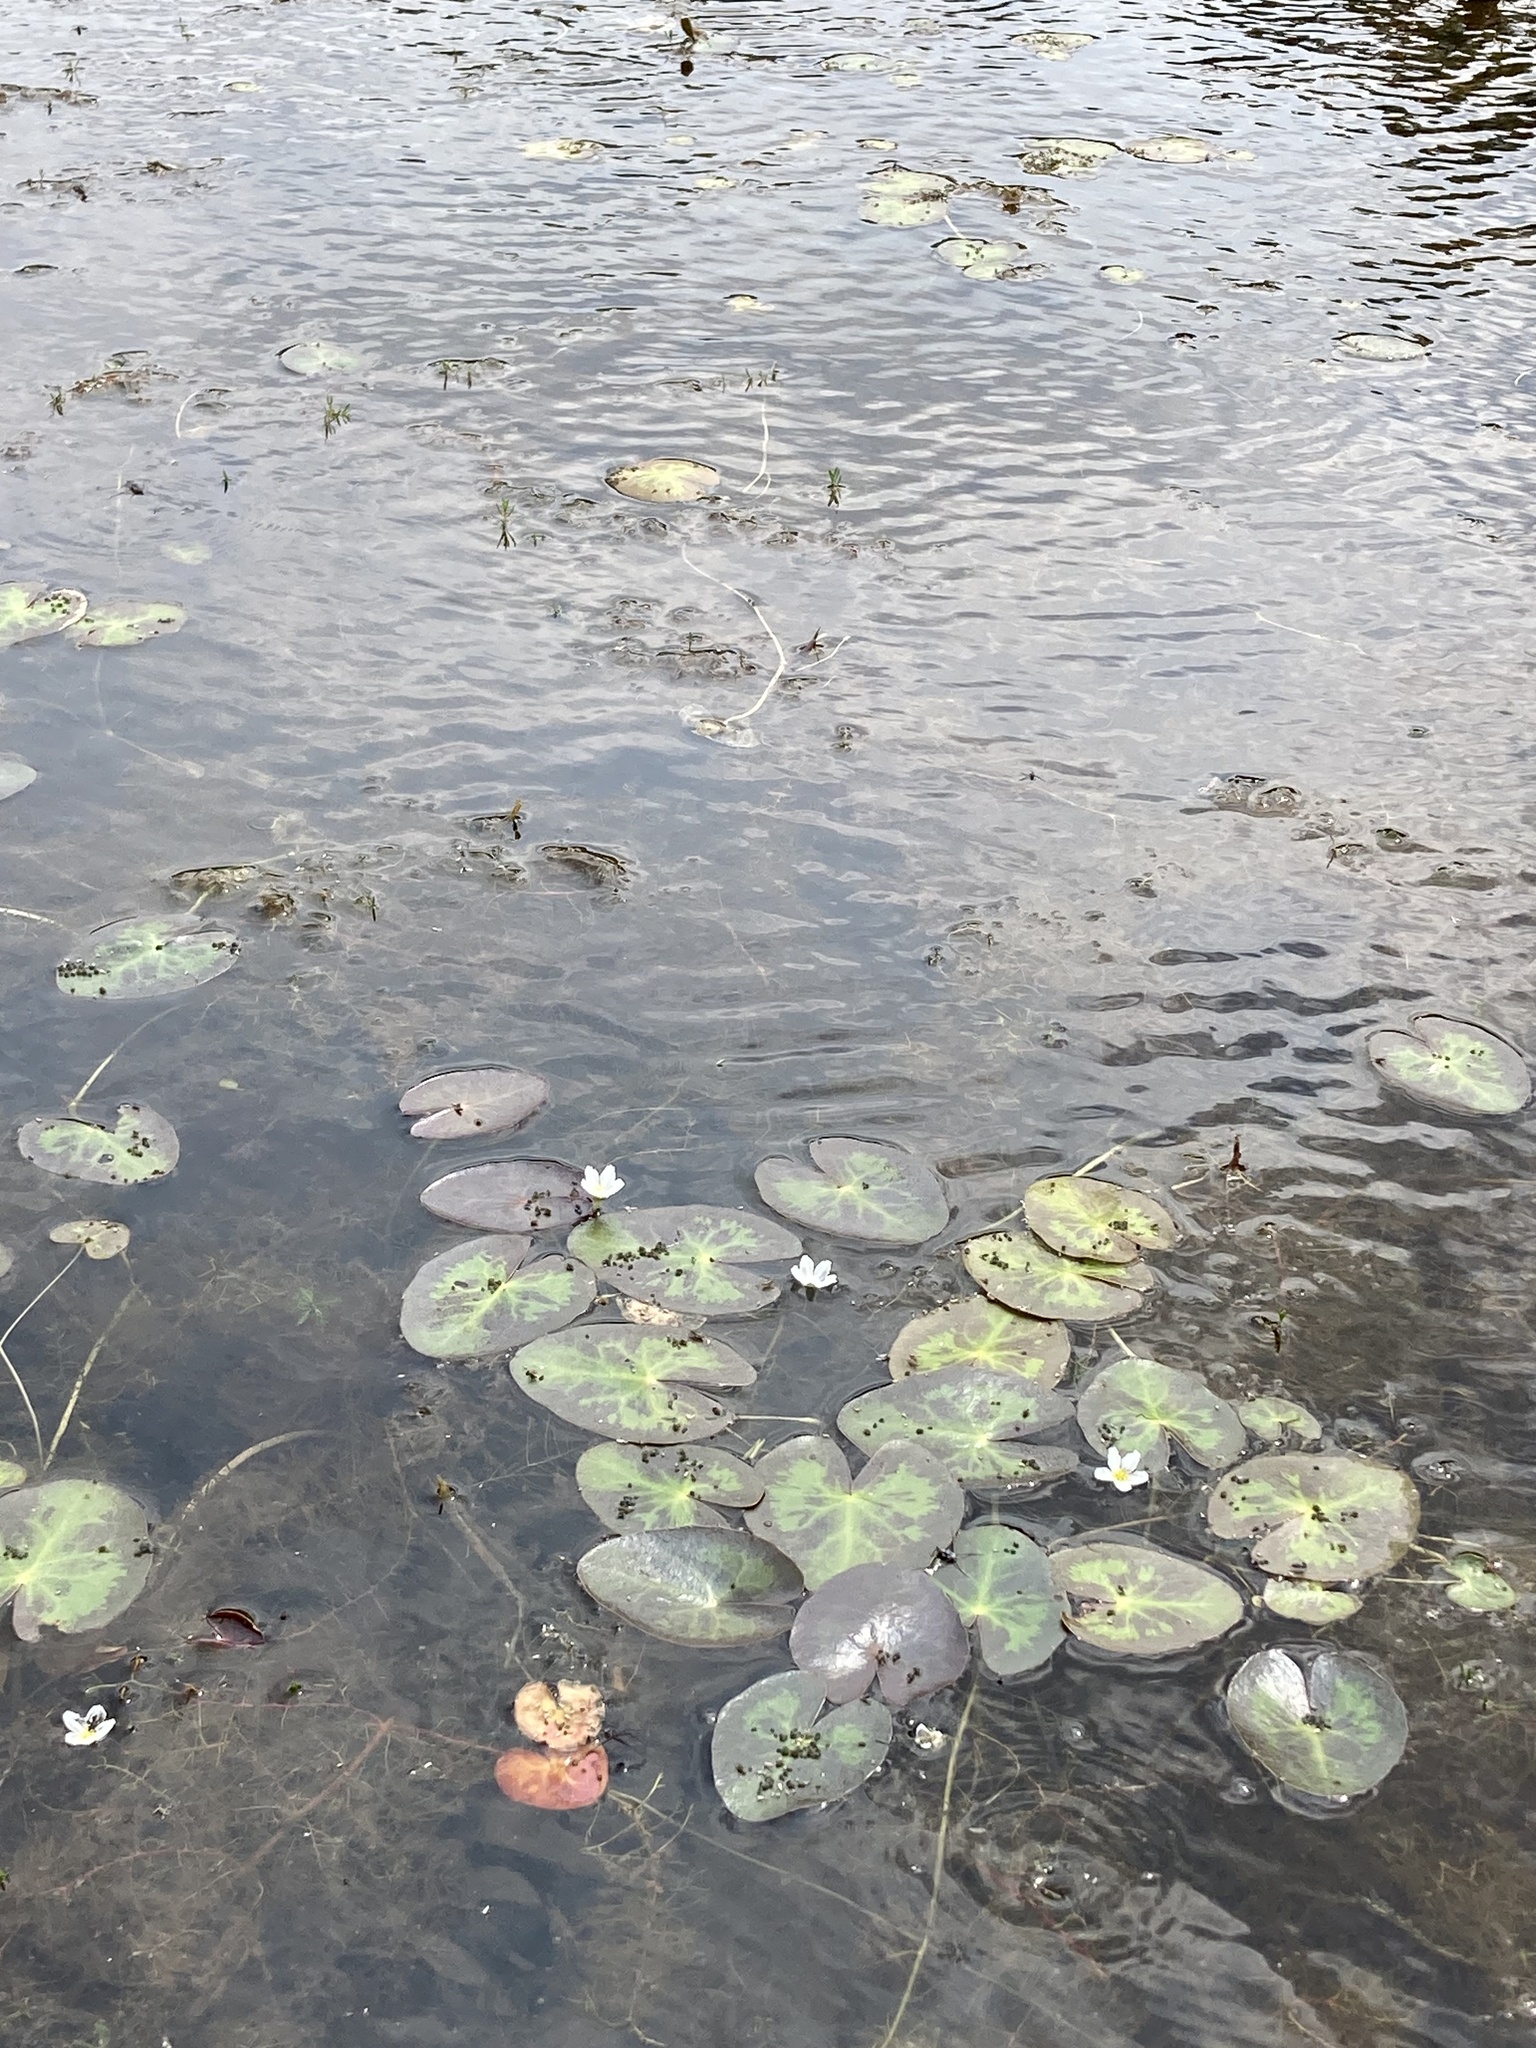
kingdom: Plantae
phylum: Tracheophyta
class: Magnoliopsida
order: Asterales
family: Menyanthaceae
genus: Nymphoides
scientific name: Nymphoides cordata
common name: Eight-angled floatingheart
